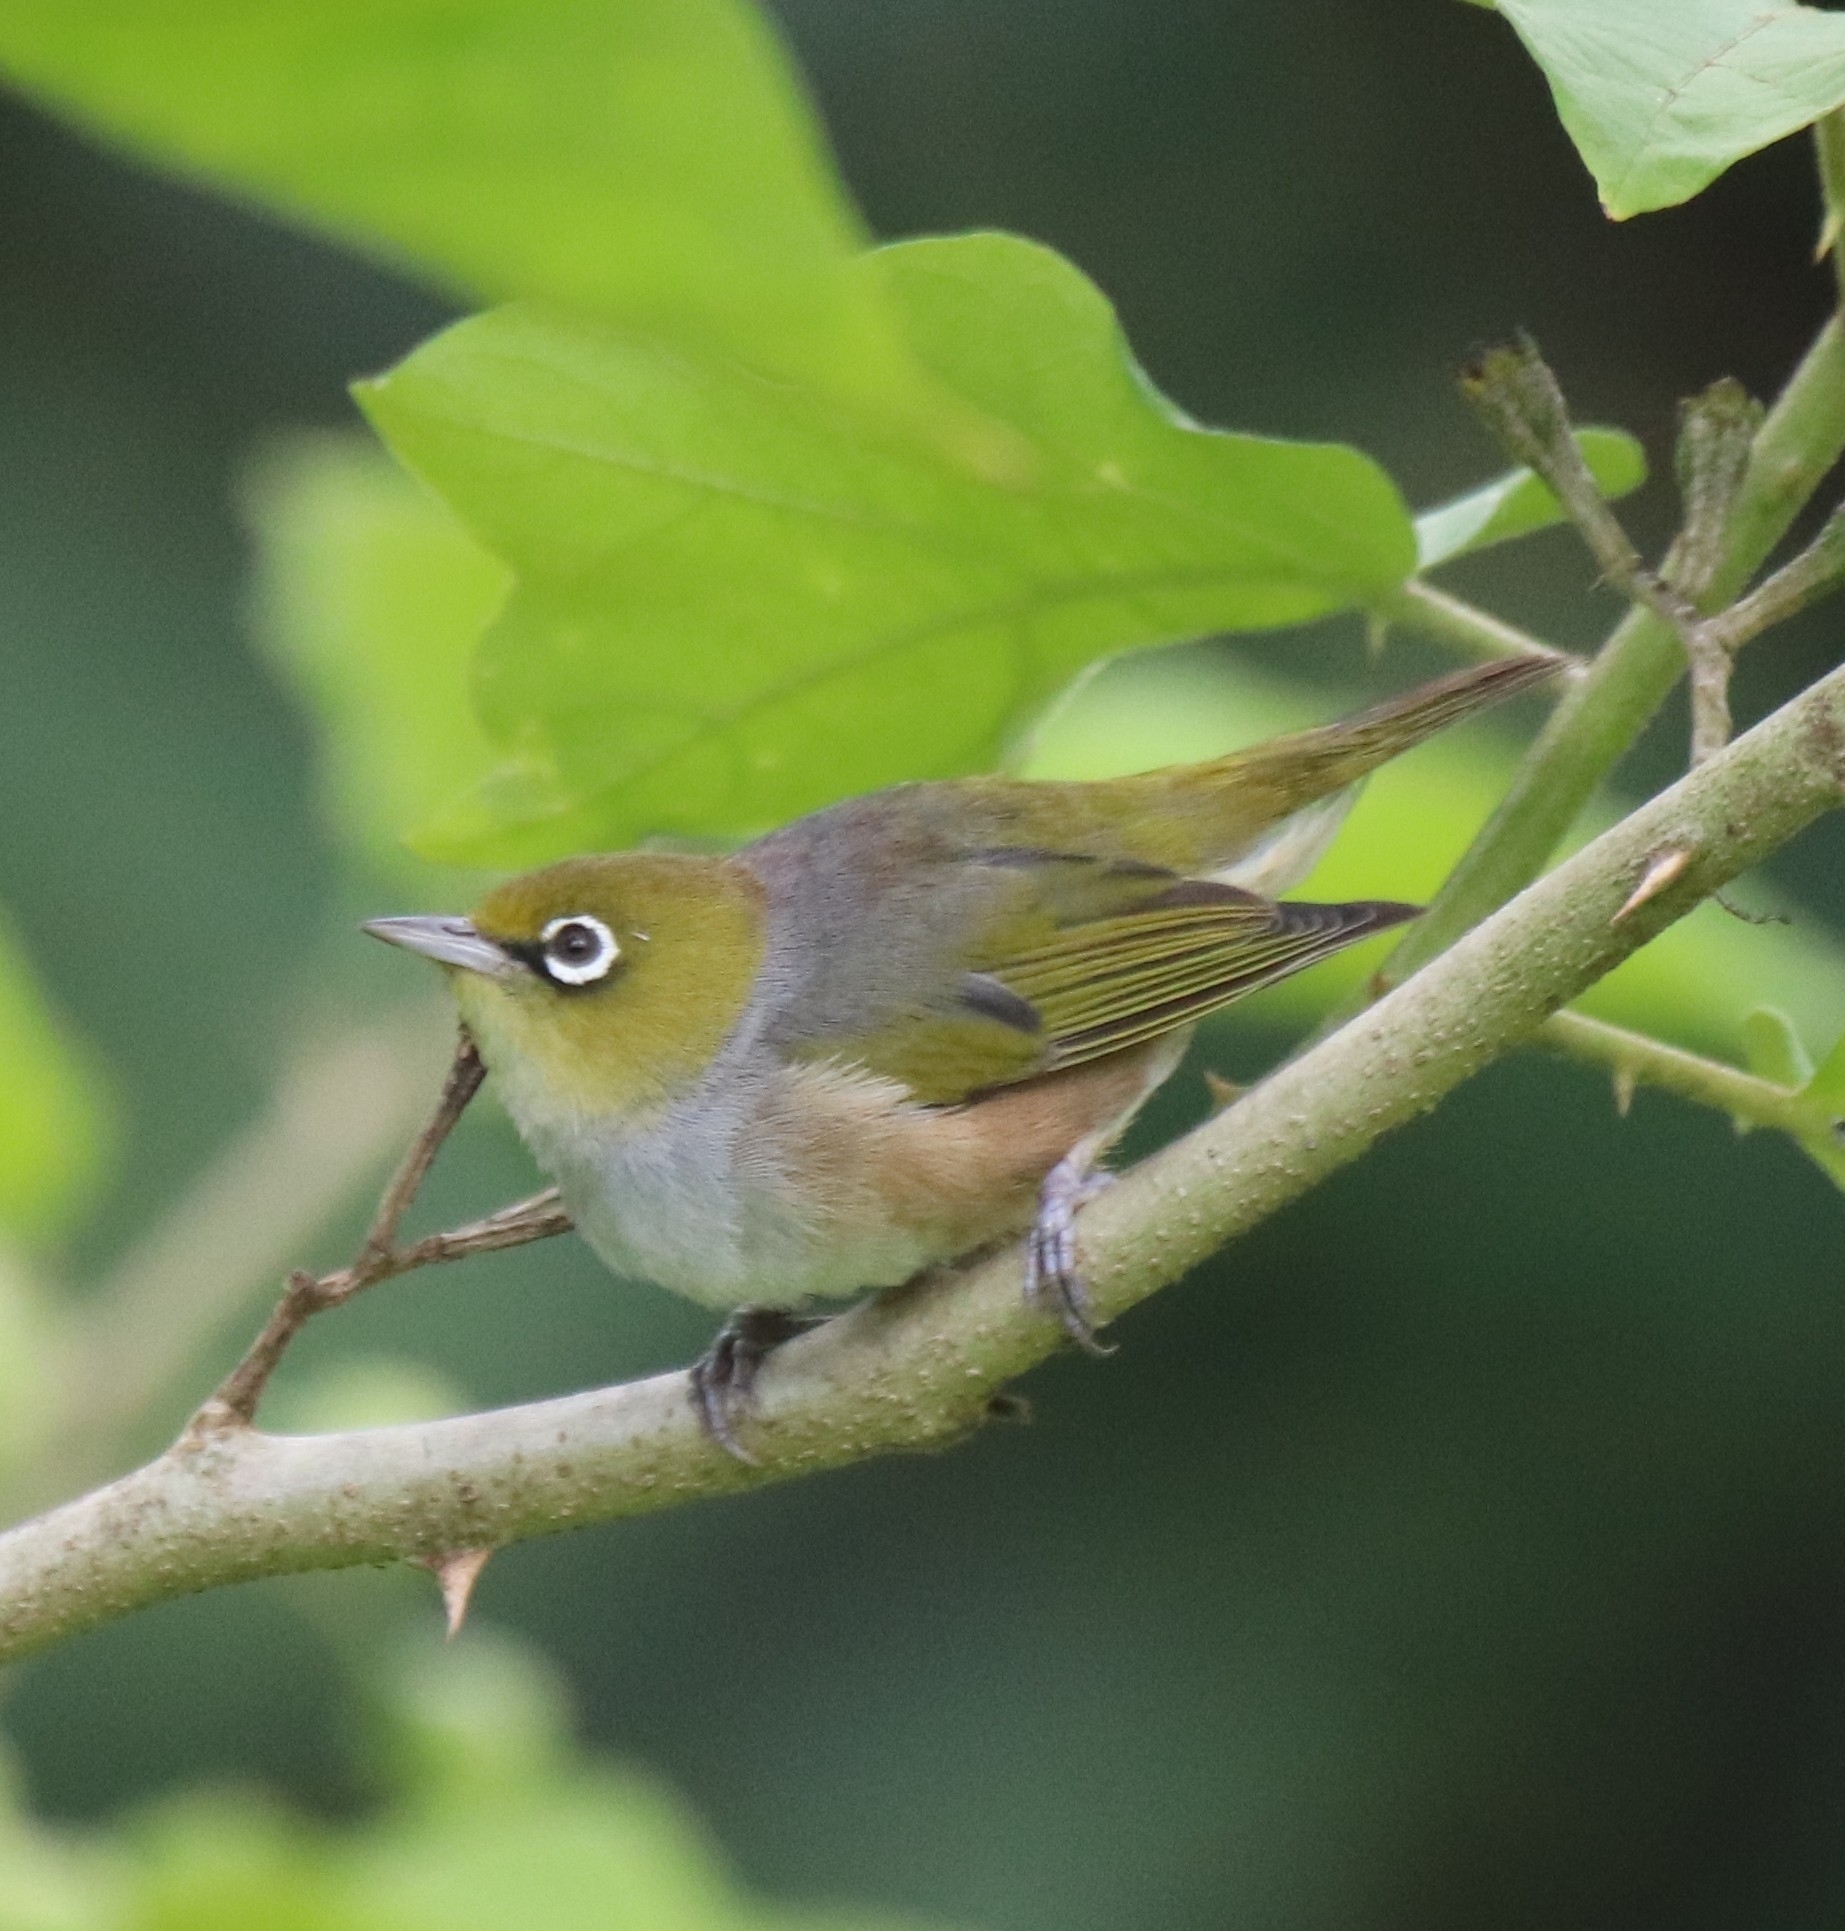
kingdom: Animalia
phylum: Chordata
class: Aves
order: Passeriformes
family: Zosteropidae
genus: Zosterops
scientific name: Zosterops lateralis
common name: Silvereye
